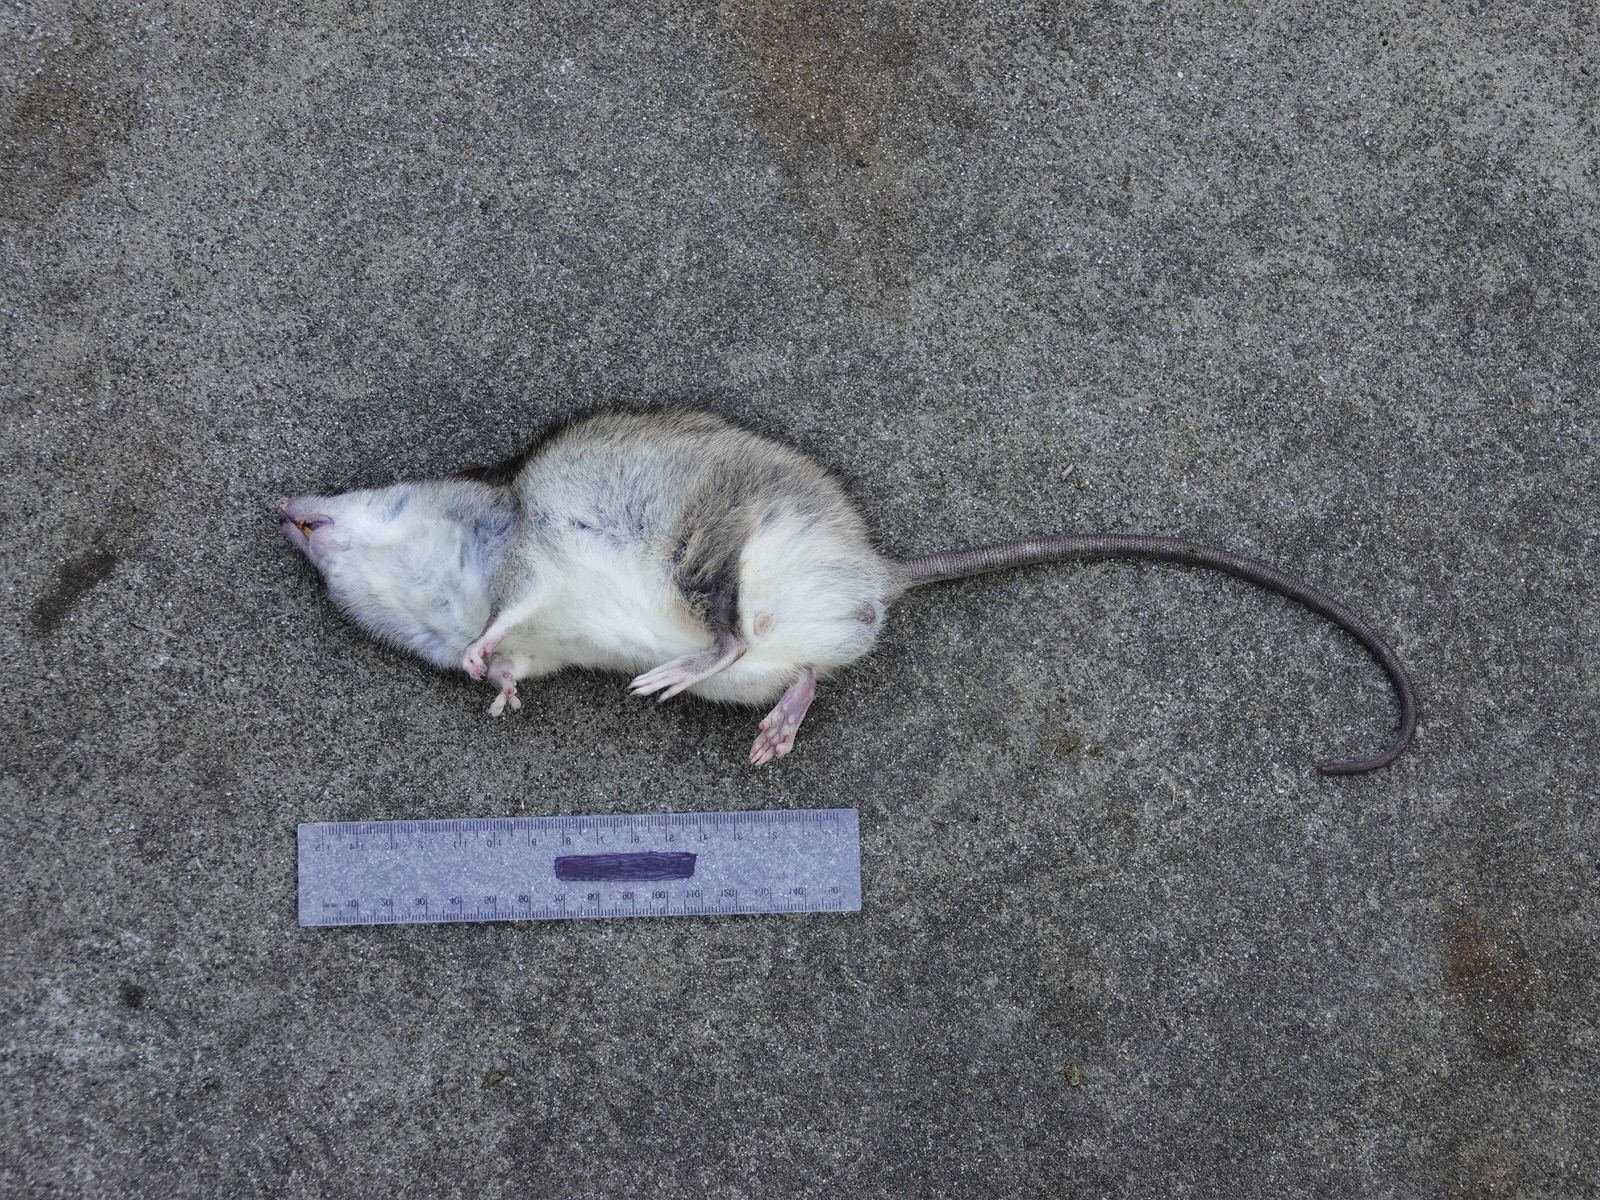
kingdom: Animalia
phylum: Chordata
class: Mammalia
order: Rodentia
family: Muridae
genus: Rattus
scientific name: Rattus rattus
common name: Black rat
